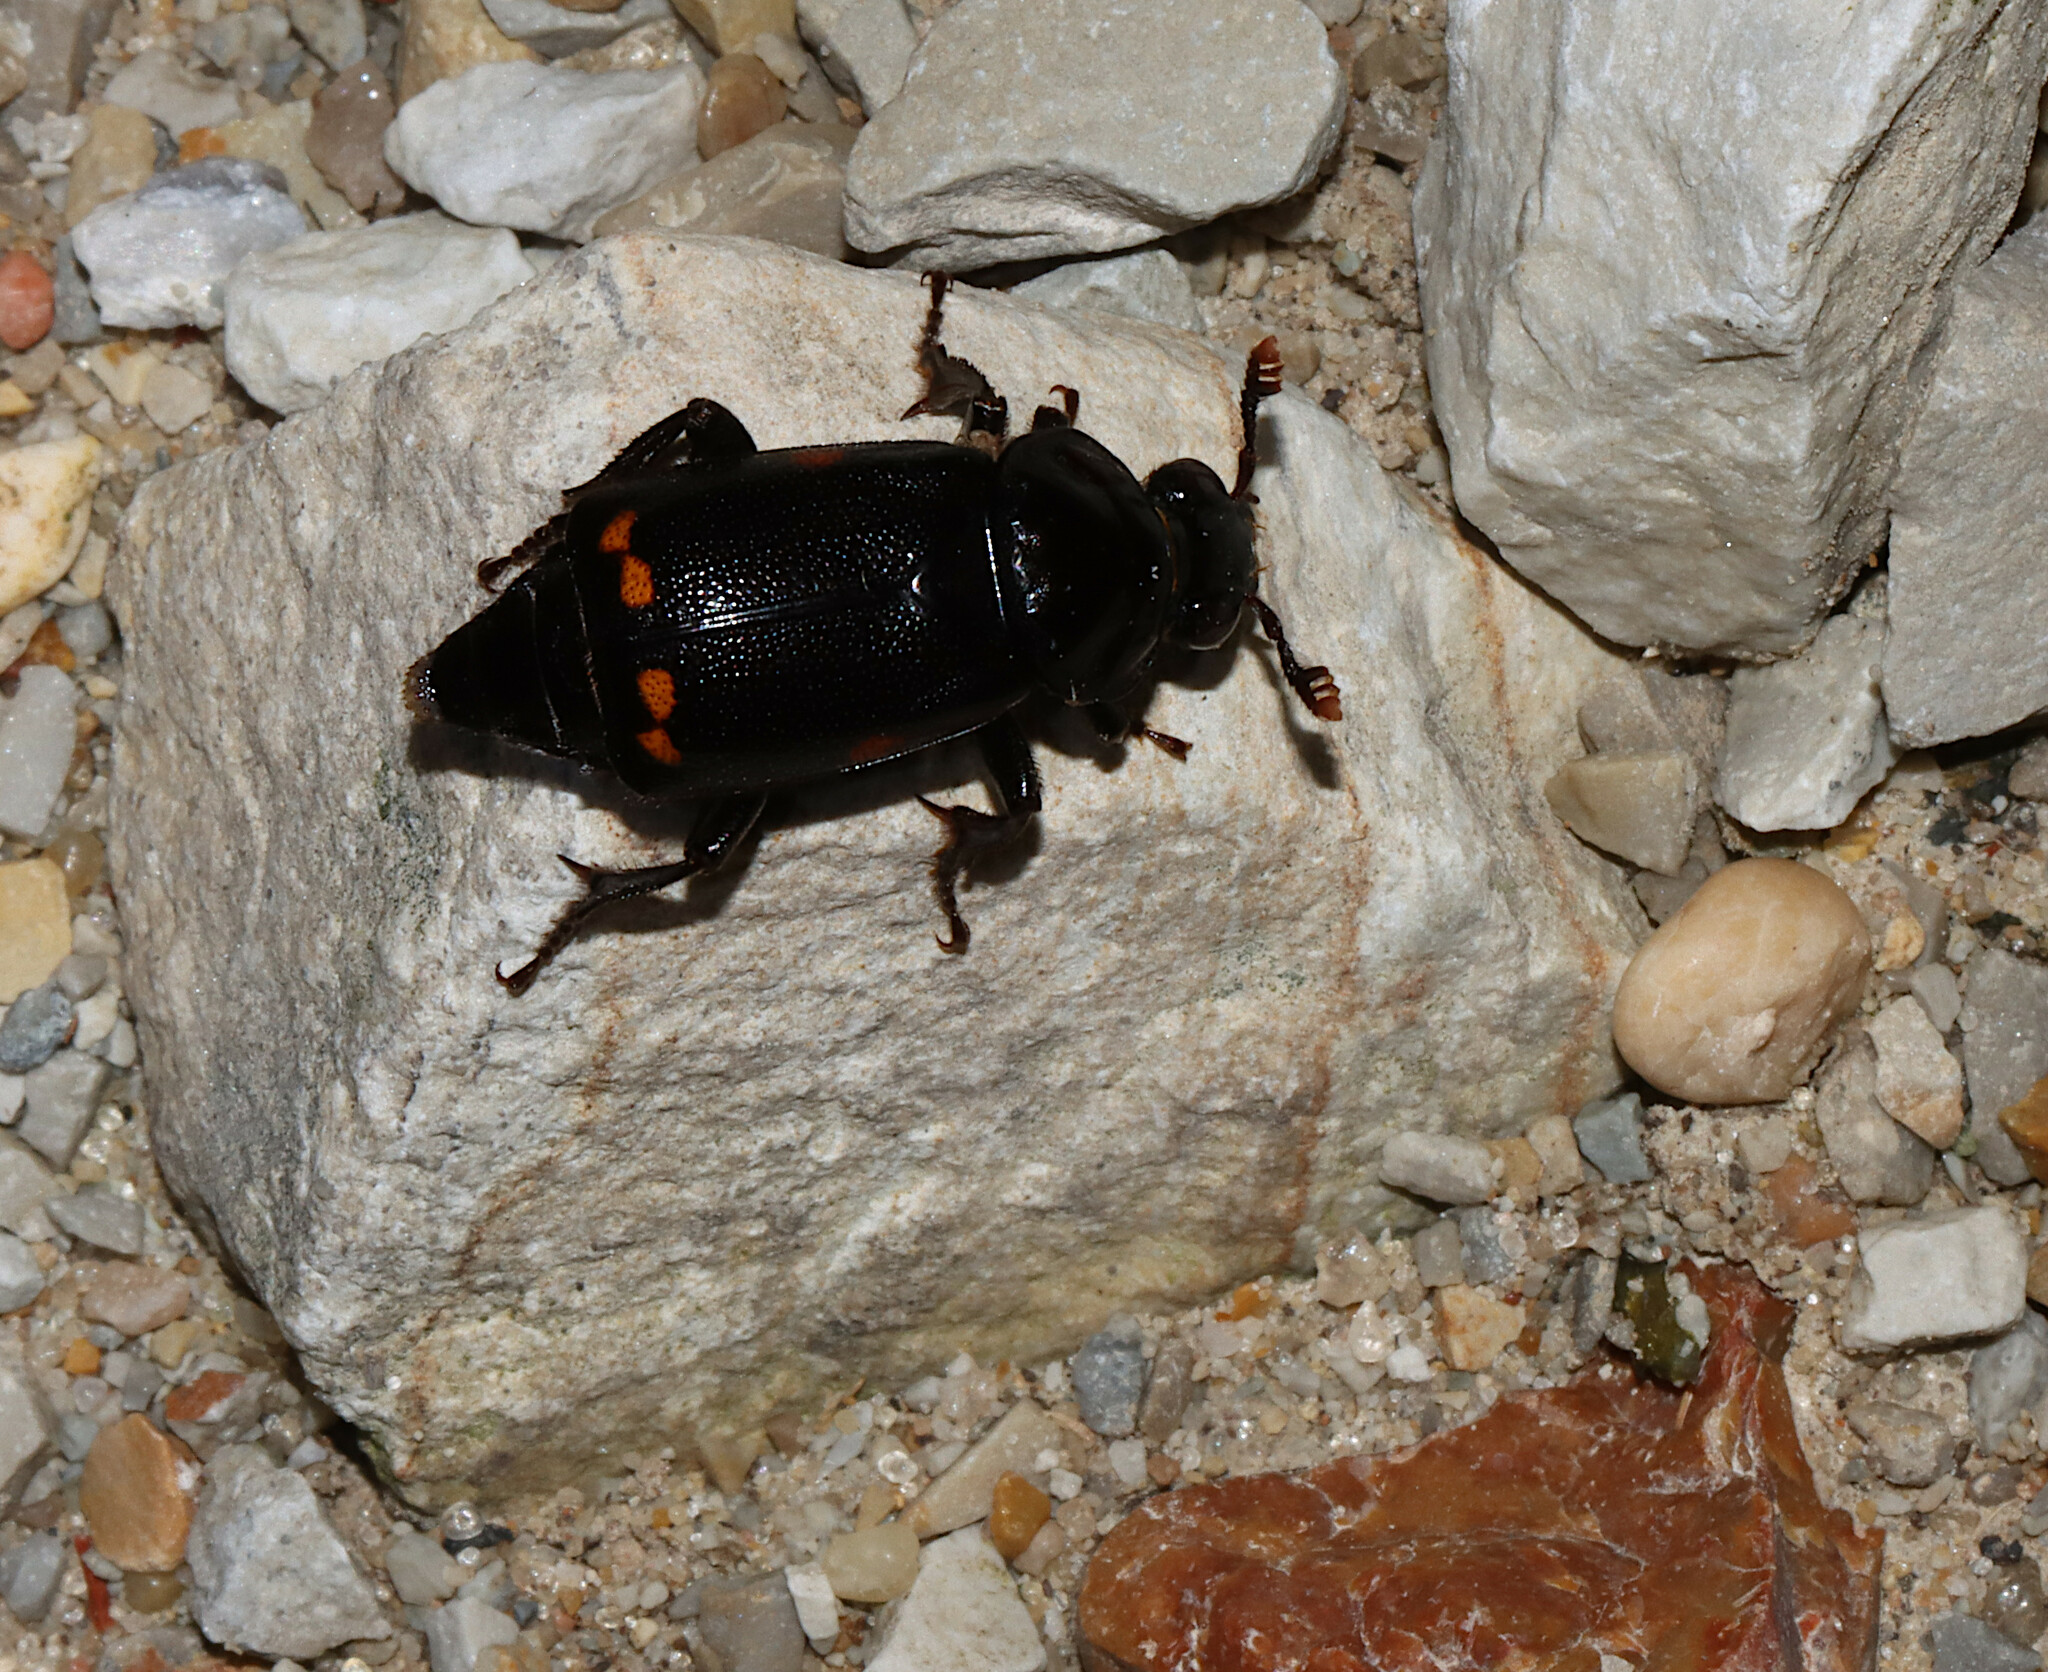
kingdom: Animalia
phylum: Arthropoda
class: Insecta
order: Coleoptera
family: Staphylinidae
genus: Nicrophorus
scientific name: Nicrophorus pustulatus
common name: Pustulated carrion beetle
